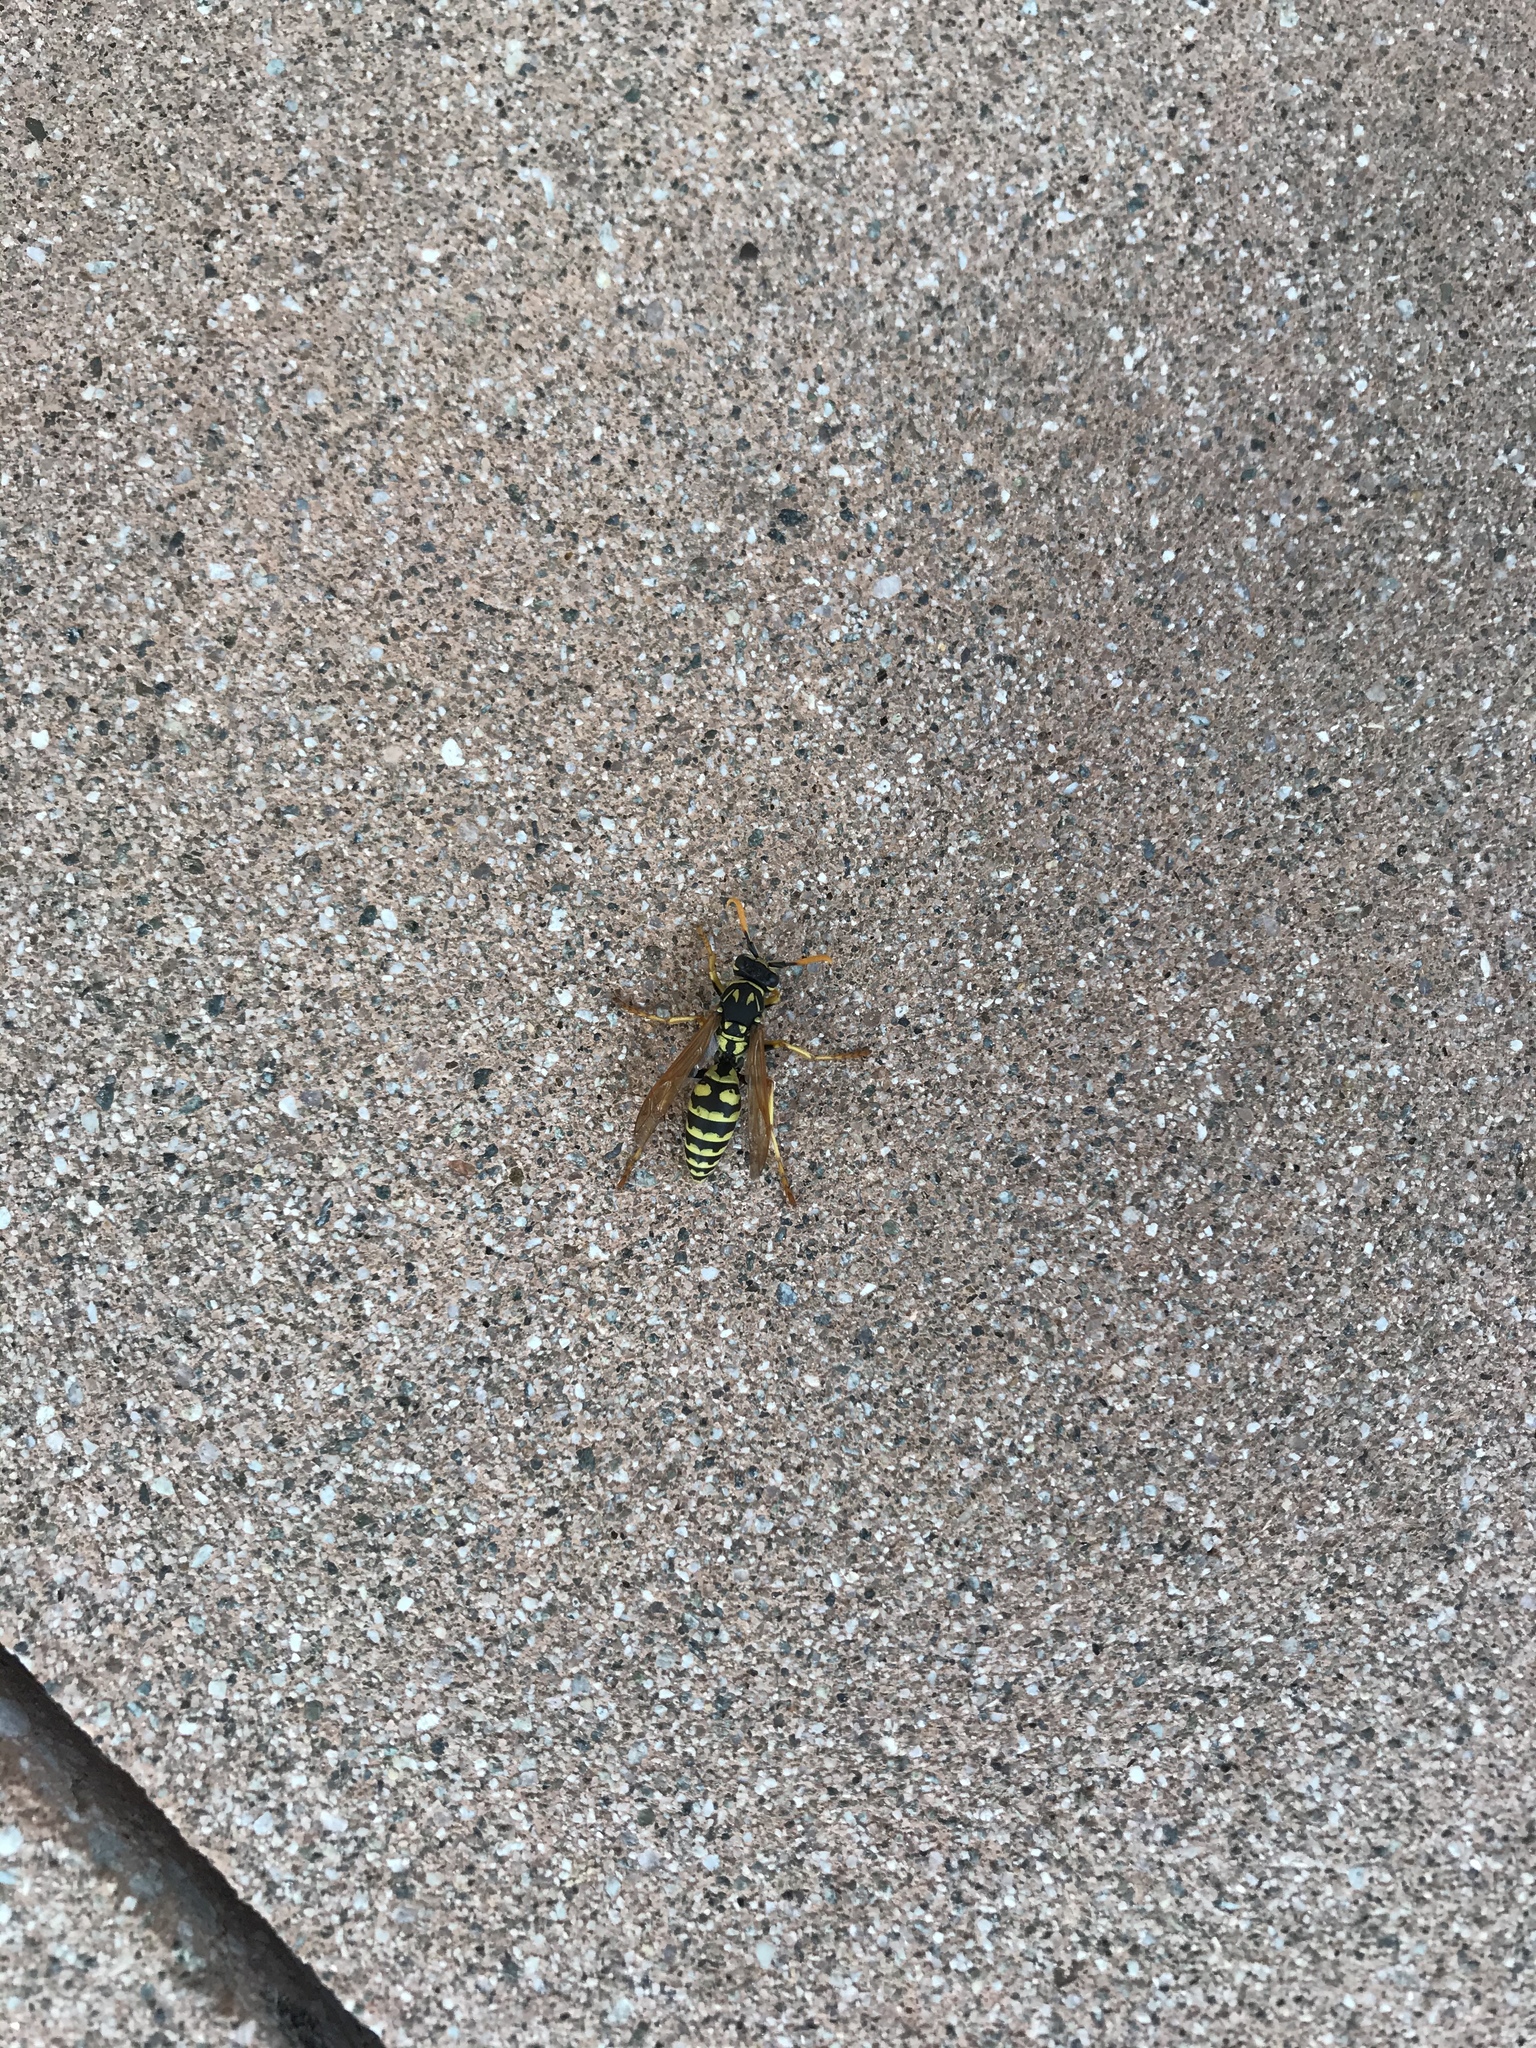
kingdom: Animalia
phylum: Arthropoda
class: Insecta
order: Hymenoptera
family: Eumenidae
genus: Polistes
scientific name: Polistes dominula
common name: Paper wasp
